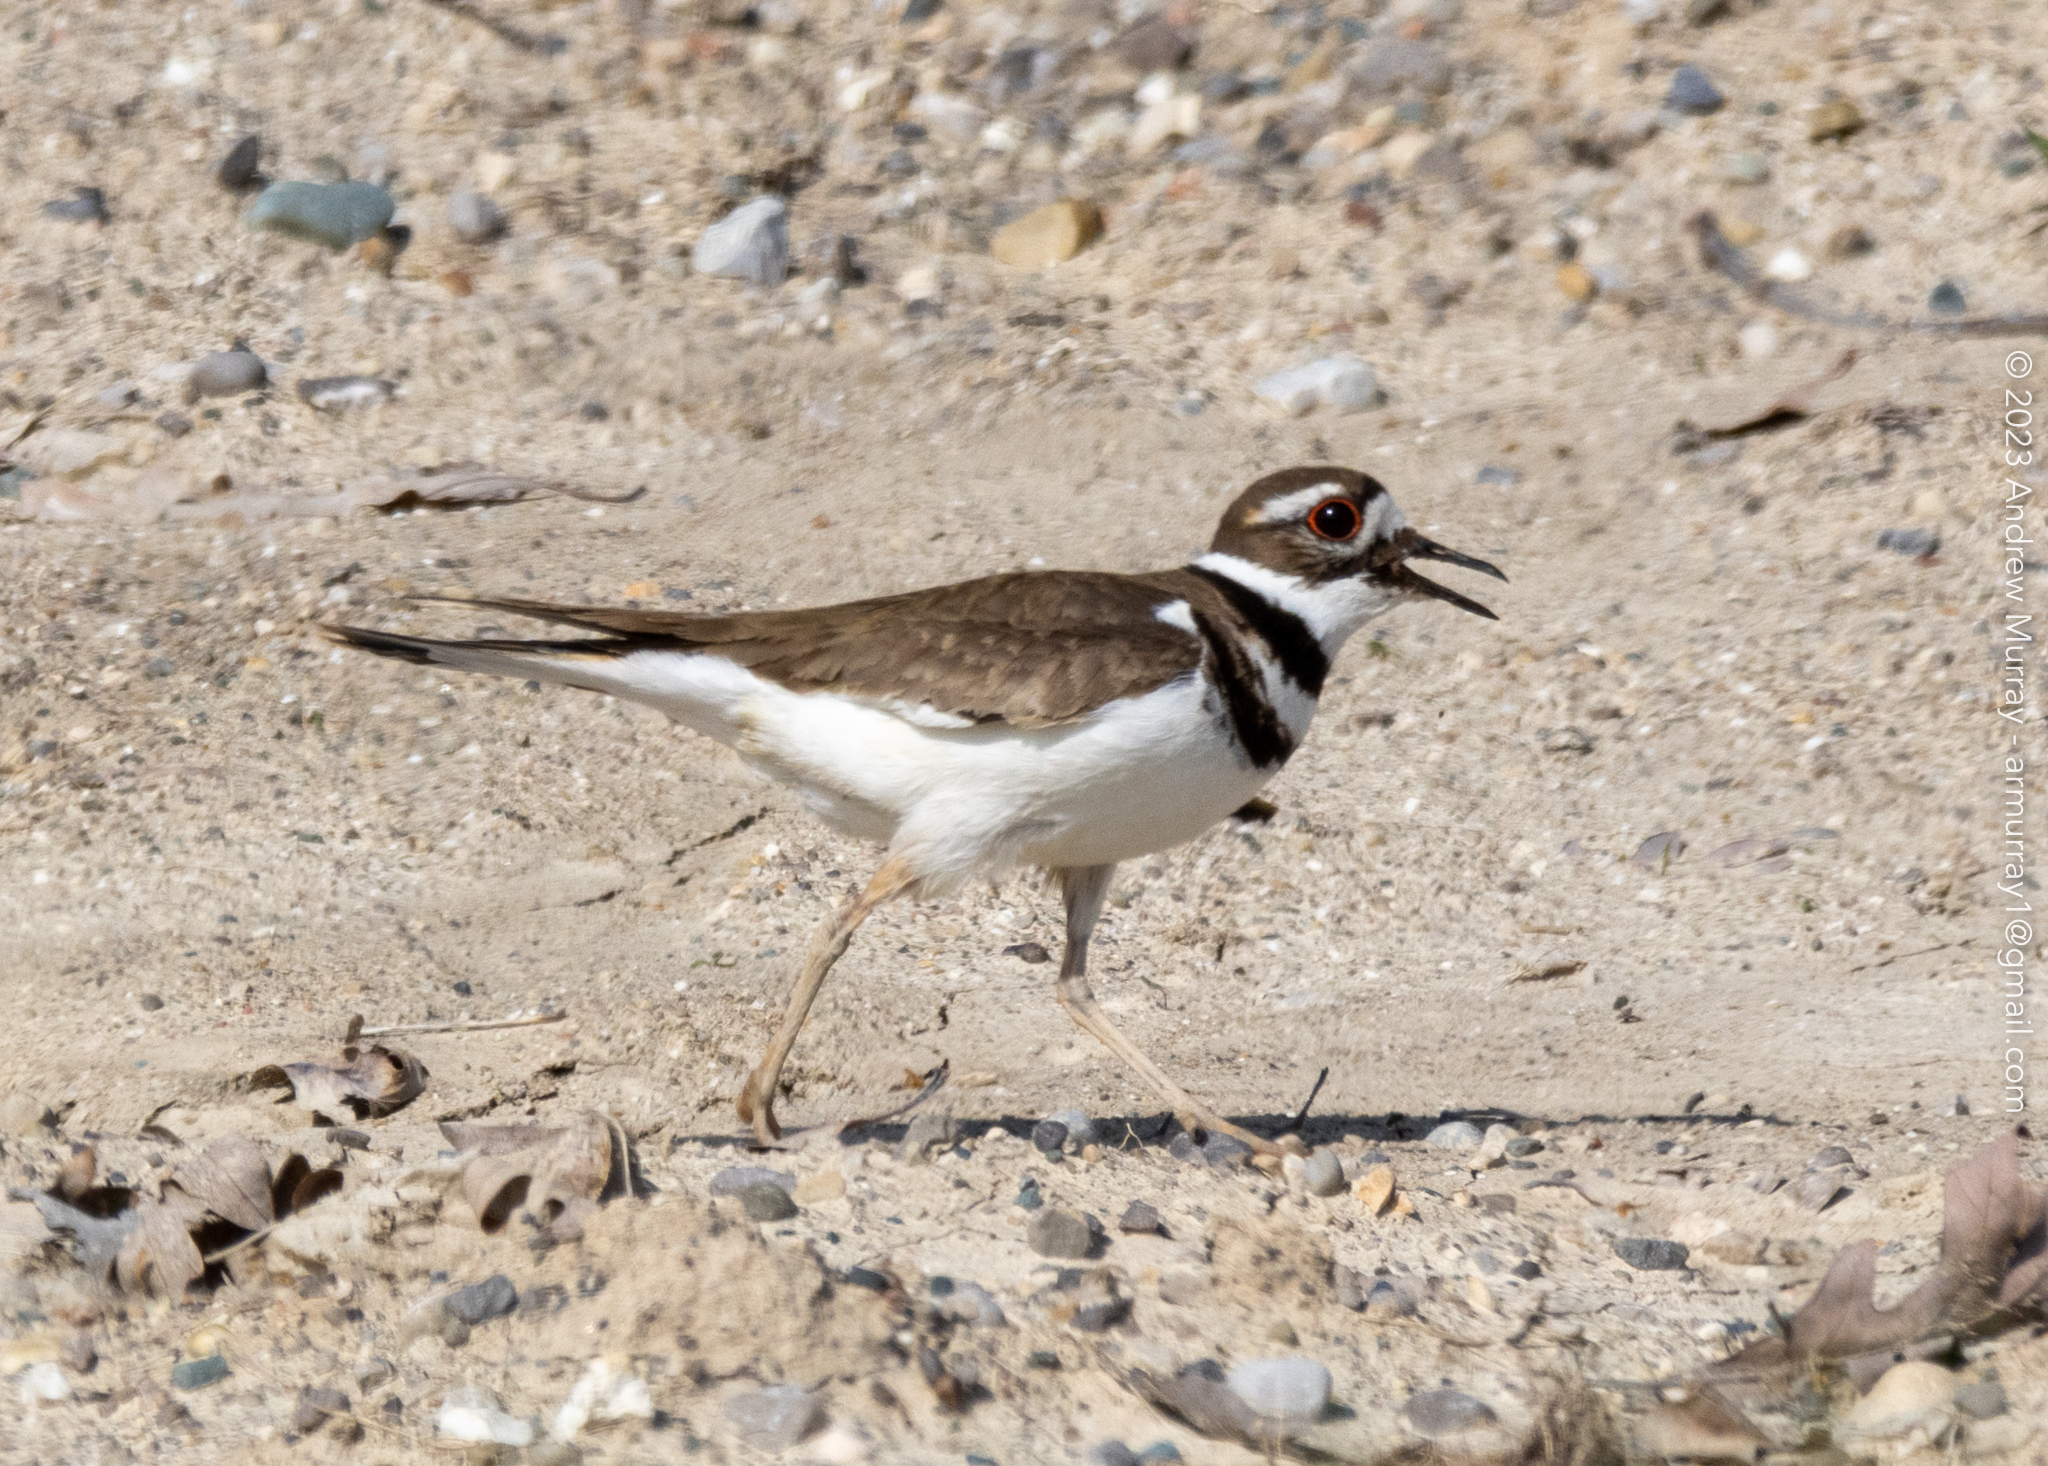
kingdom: Animalia
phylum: Chordata
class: Aves
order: Charadriiformes
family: Charadriidae
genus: Charadrius
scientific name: Charadrius vociferus
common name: Killdeer
